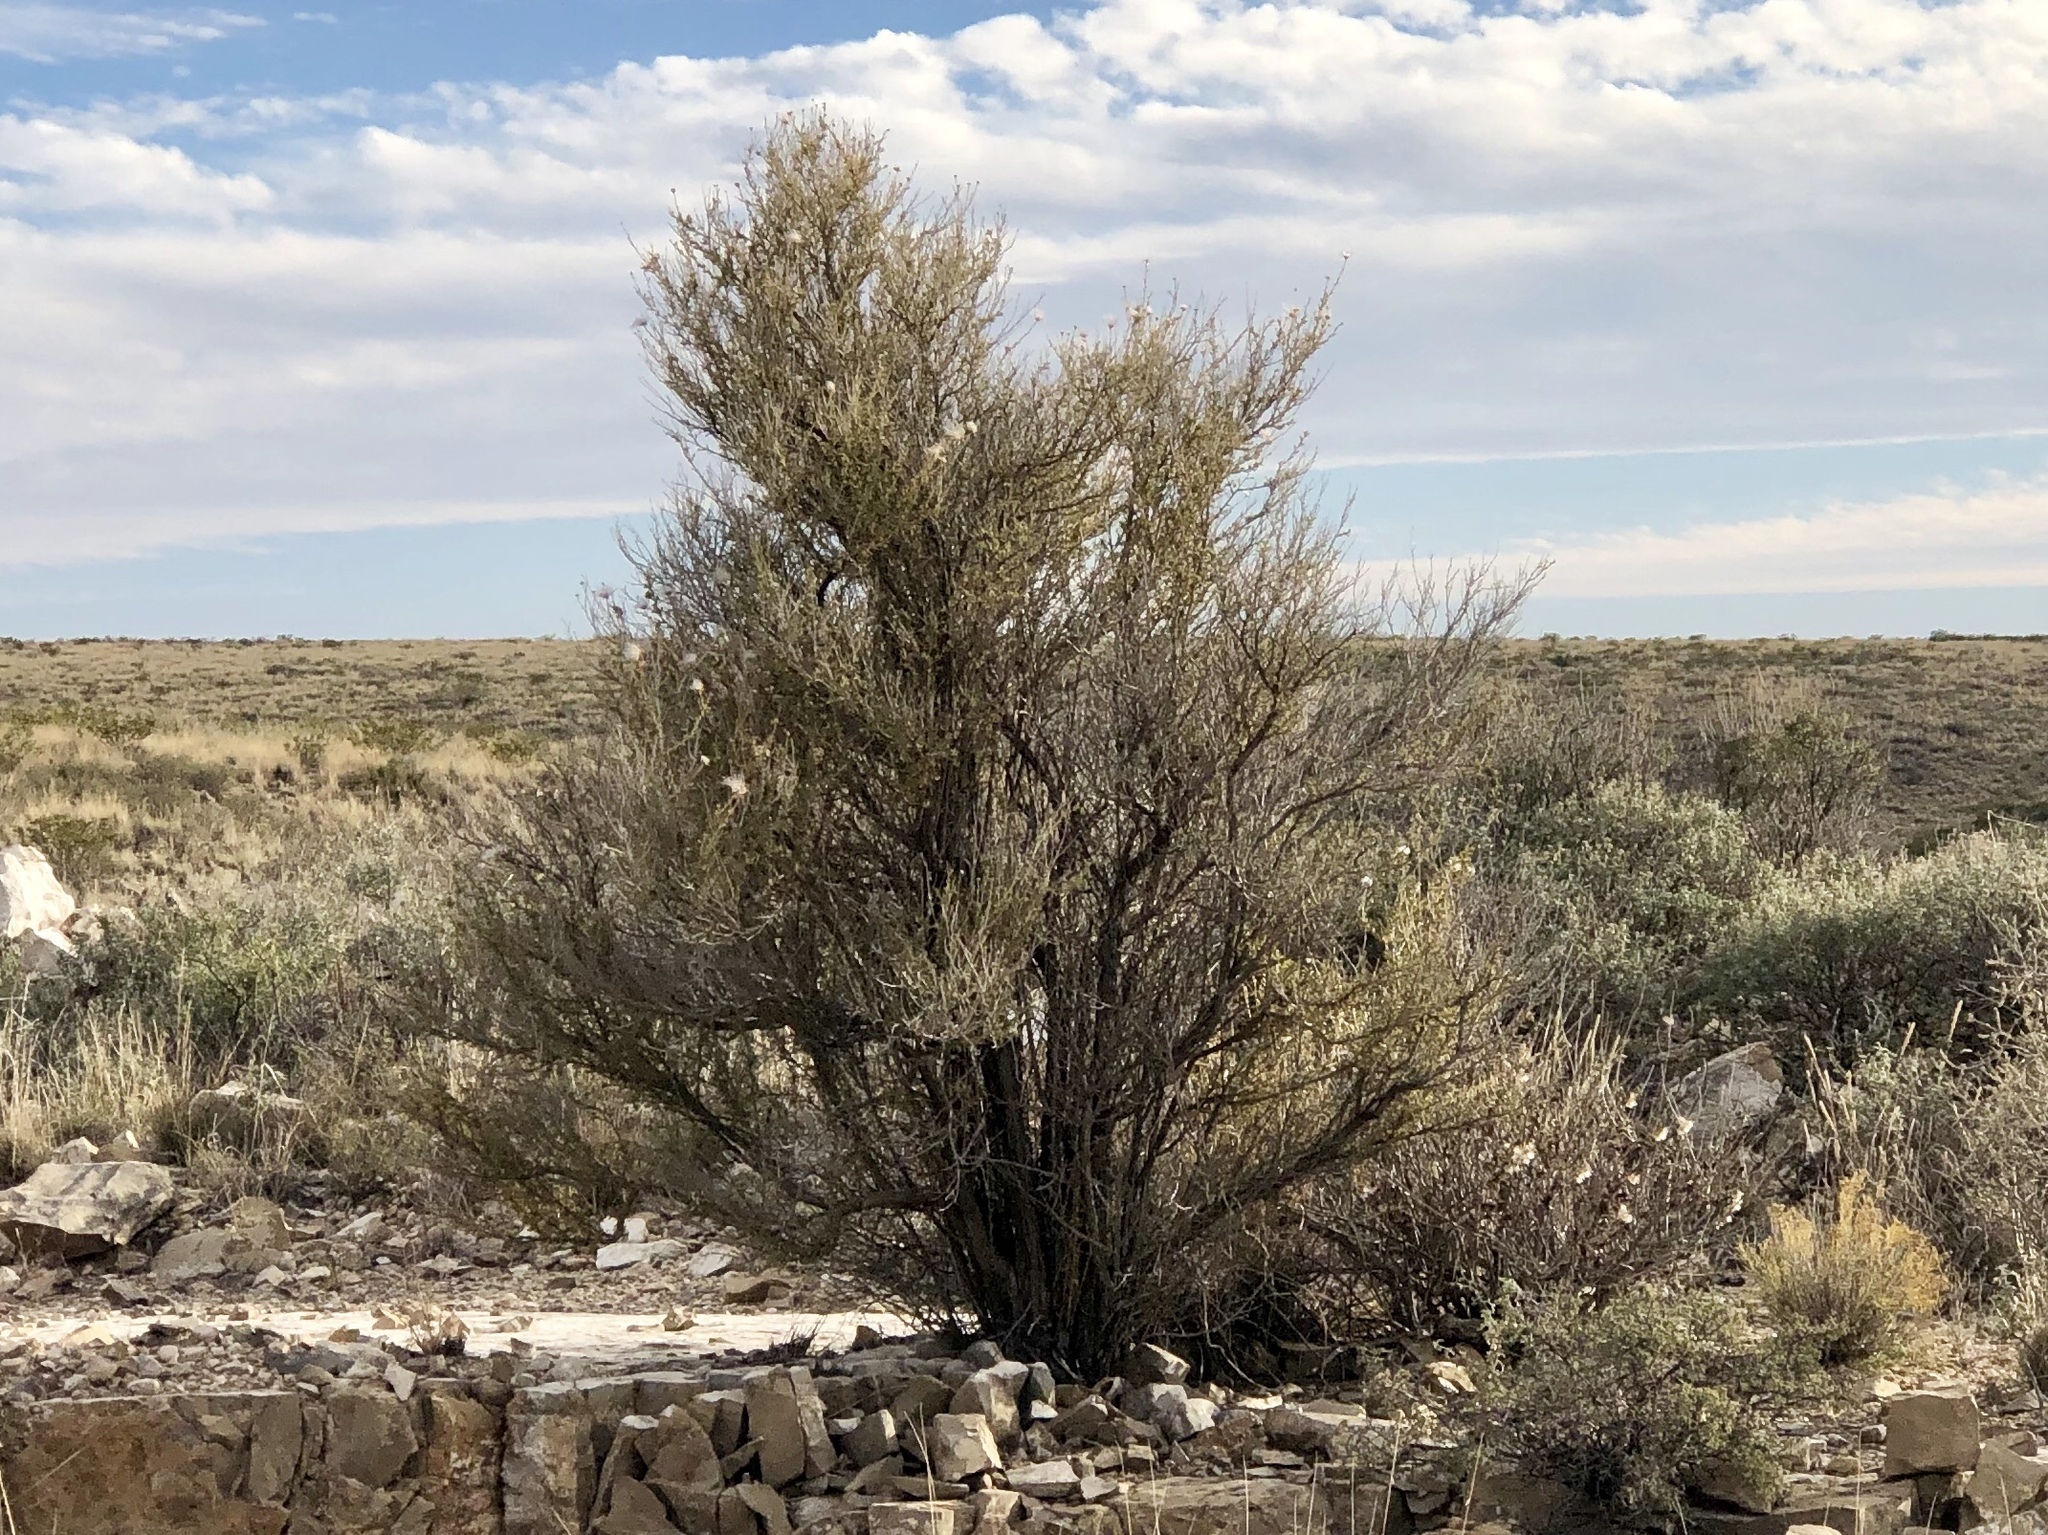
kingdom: Plantae
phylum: Tracheophyta
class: Magnoliopsida
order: Rosales
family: Rosaceae
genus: Fallugia
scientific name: Fallugia paradoxa
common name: Apache-plume
